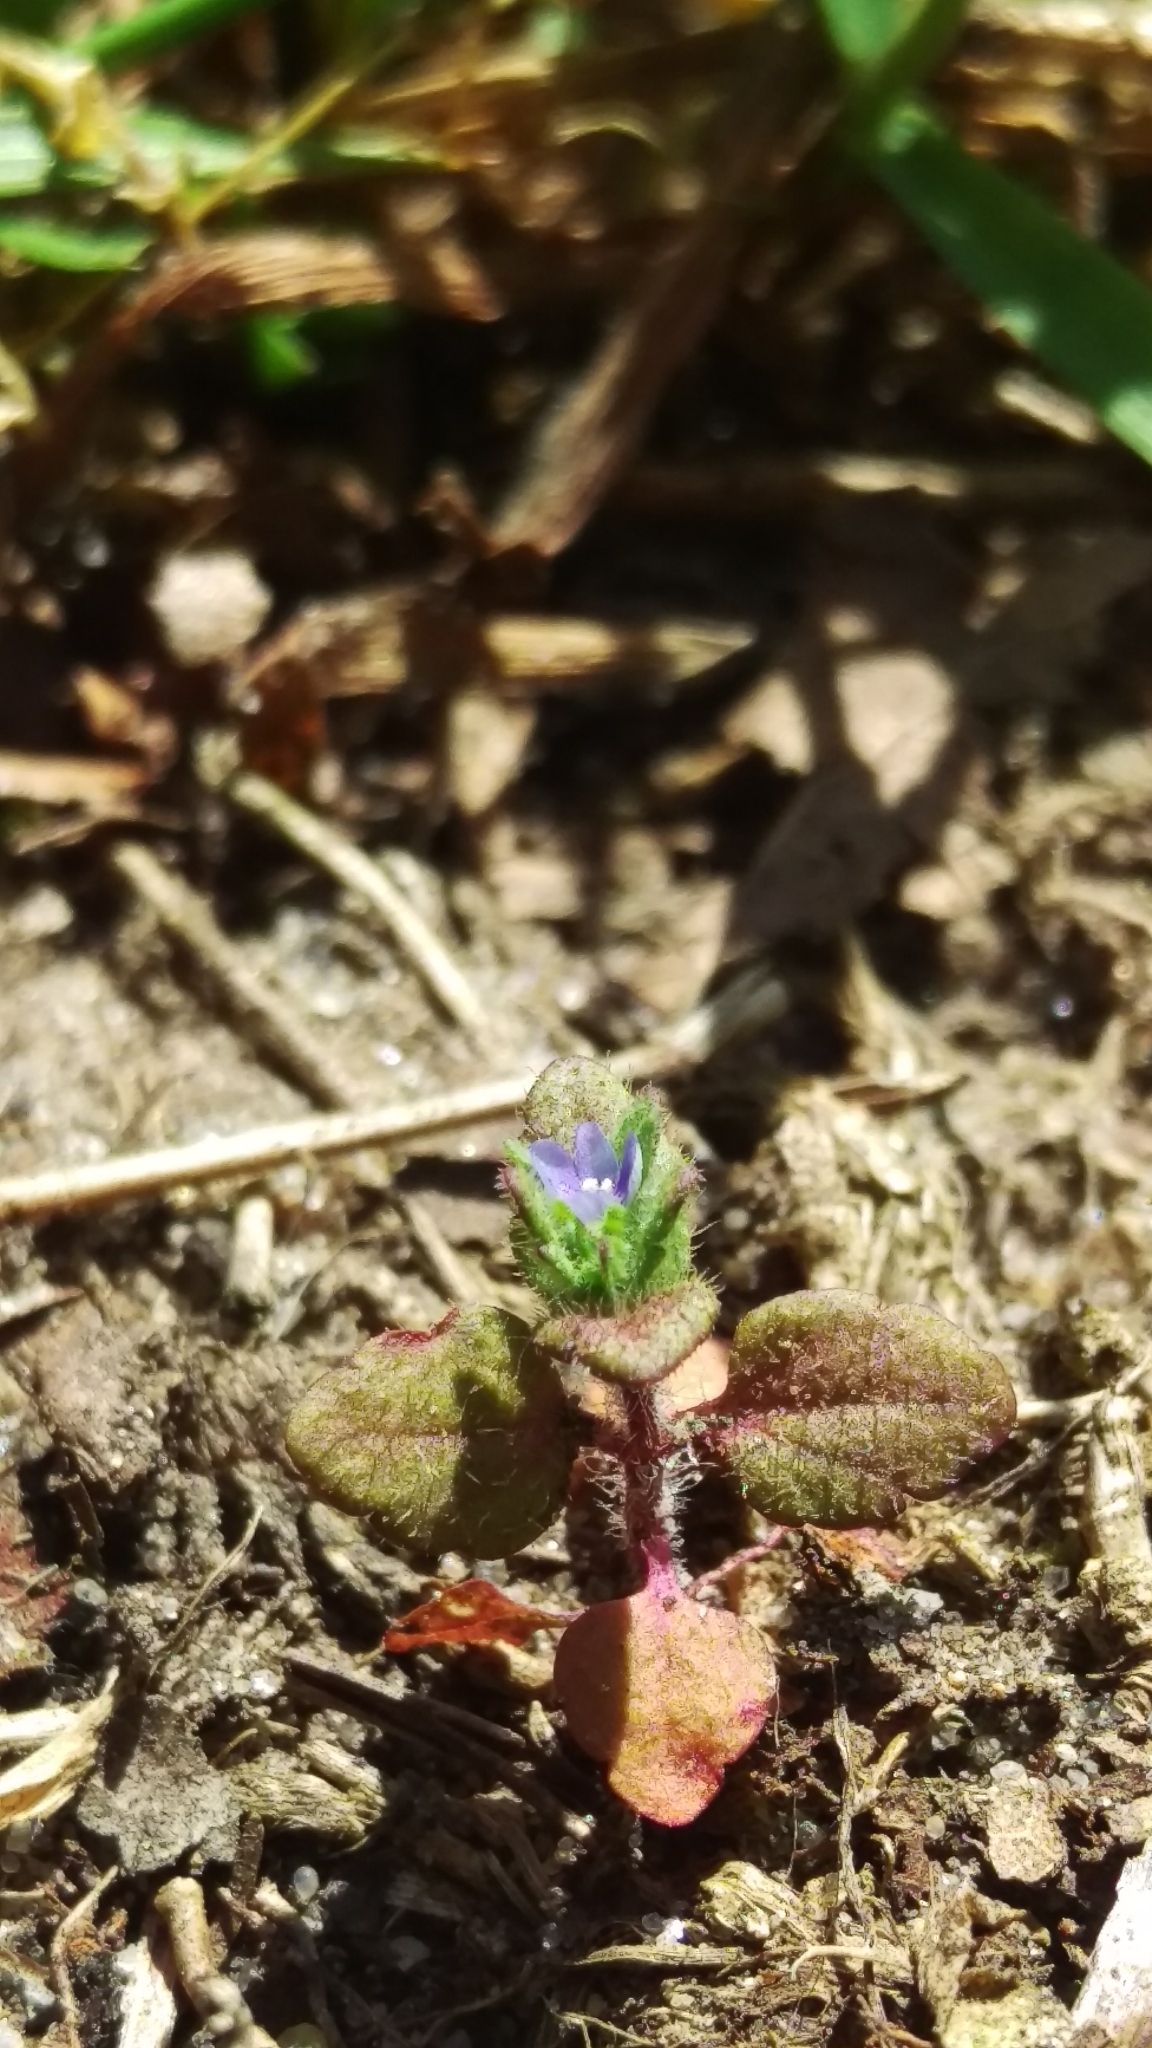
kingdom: Plantae
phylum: Tracheophyta
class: Magnoliopsida
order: Lamiales
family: Plantaginaceae
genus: Veronica
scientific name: Veronica arvensis
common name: Corn speedwell
